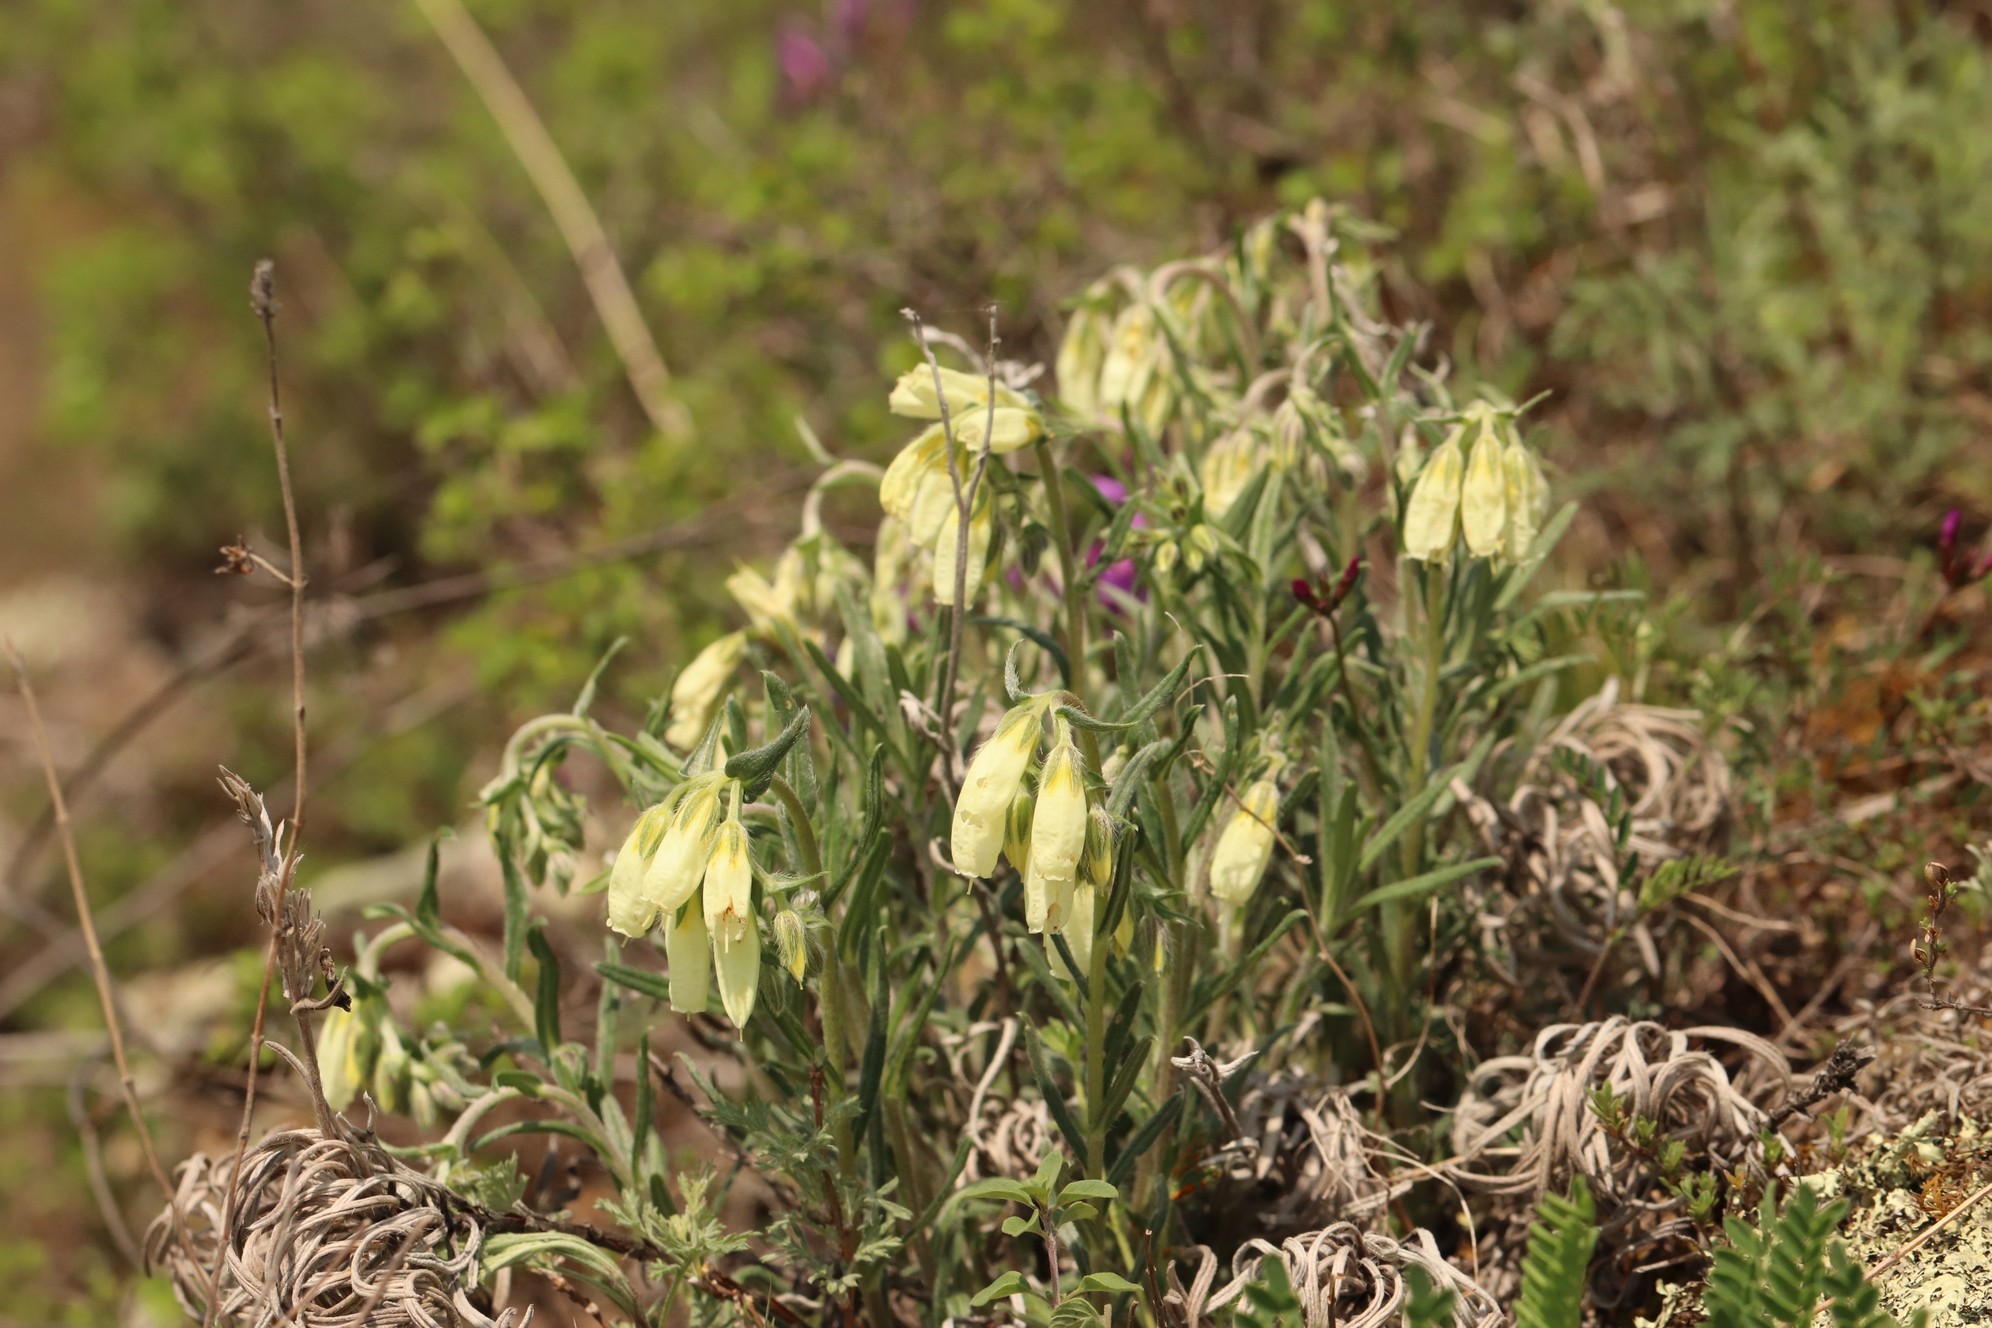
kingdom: Plantae
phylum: Tracheophyta
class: Magnoliopsida
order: Boraginales
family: Boraginaceae
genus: Onosma
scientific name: Onosma simplicissima
